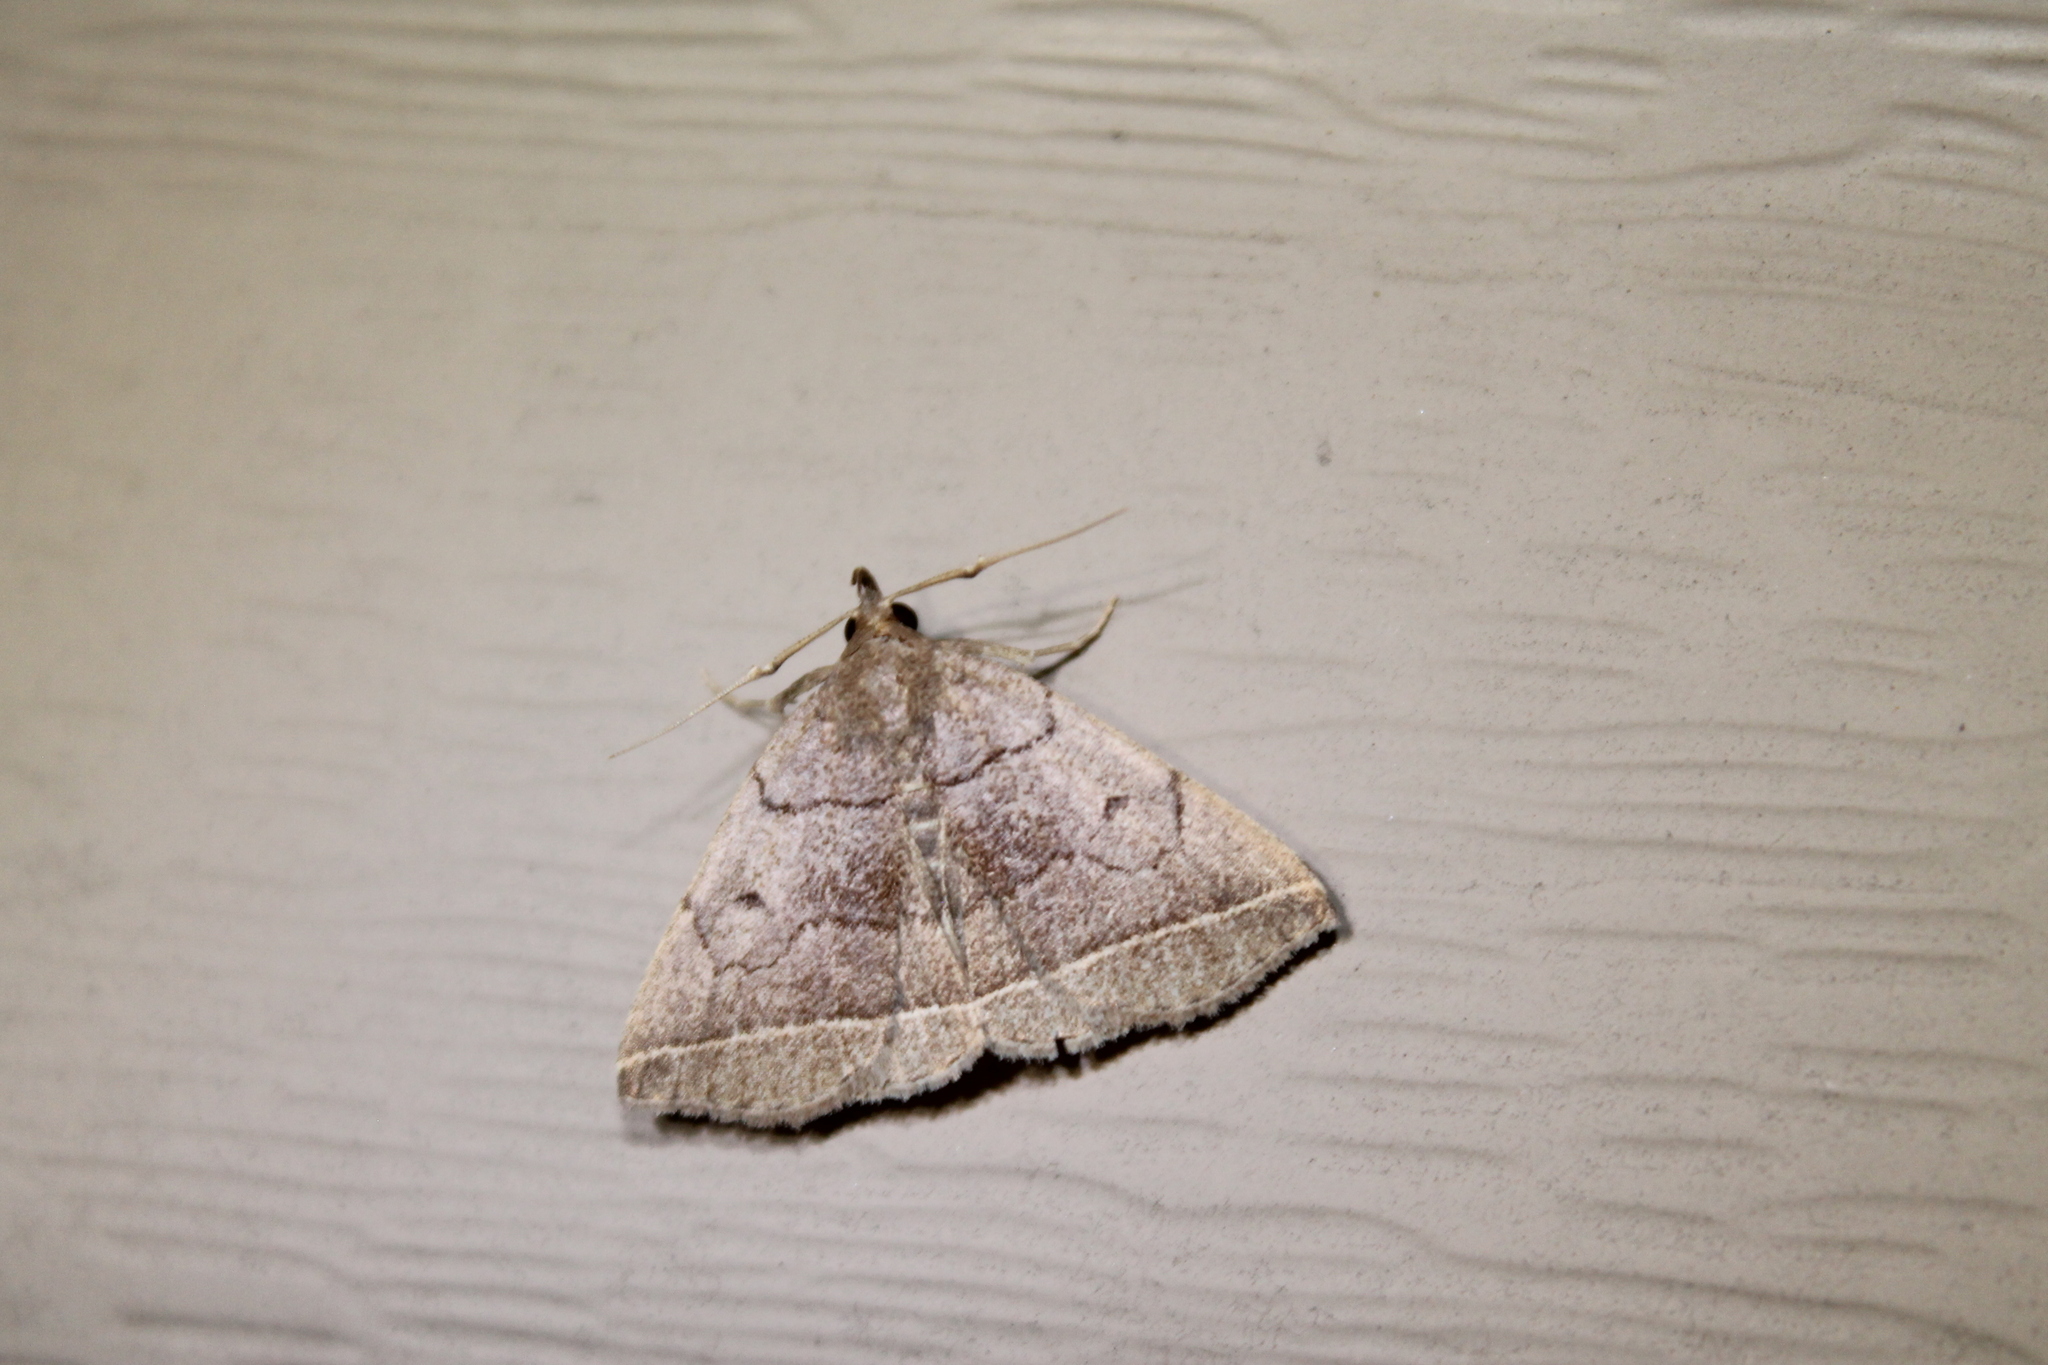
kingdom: Animalia
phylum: Arthropoda
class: Insecta
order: Lepidoptera
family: Erebidae
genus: Zanclognatha
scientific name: Zanclognatha obscuripennis
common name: Dark fan-foot
